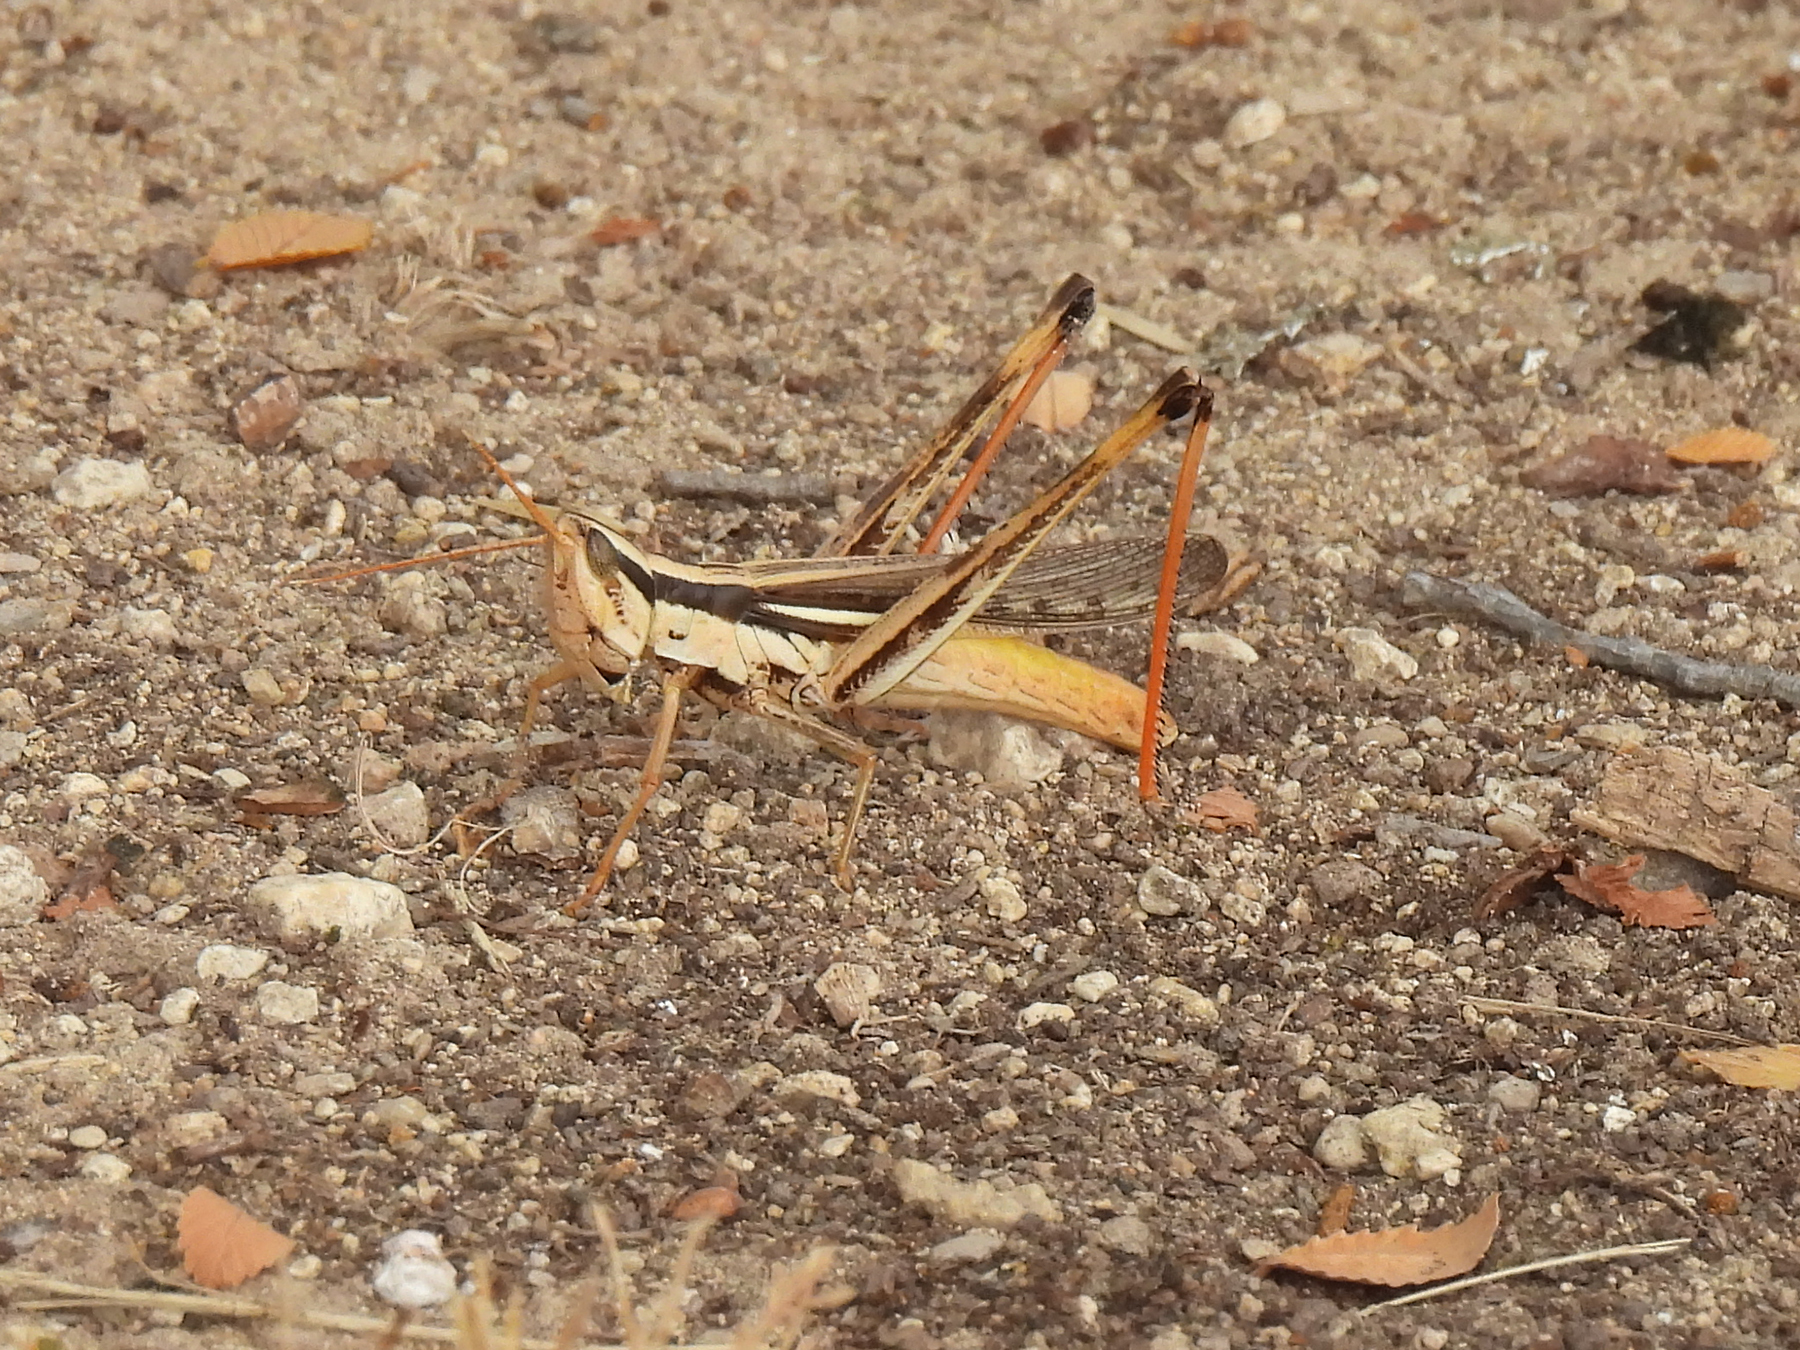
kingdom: Animalia
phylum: Arthropoda
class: Insecta
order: Orthoptera
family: Acrididae
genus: Mermiria
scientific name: Mermiria bivittata
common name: Two-striped mermiria grasshopper
